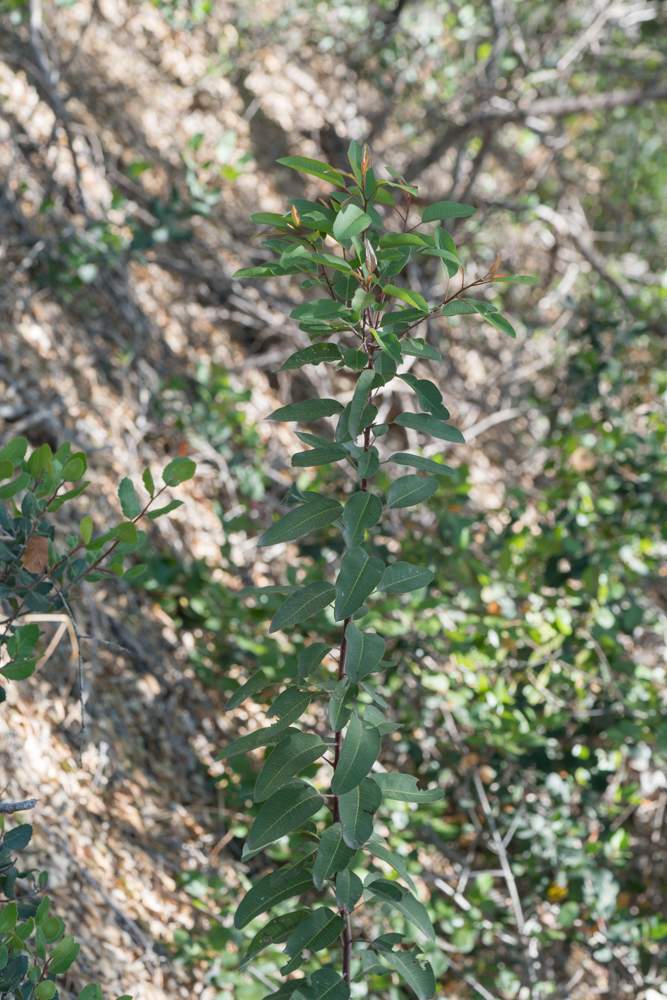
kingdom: Plantae
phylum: Tracheophyta
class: Magnoliopsida
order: Sapindales
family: Anacardiaceae
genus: Malosma
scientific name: Malosma laurina
